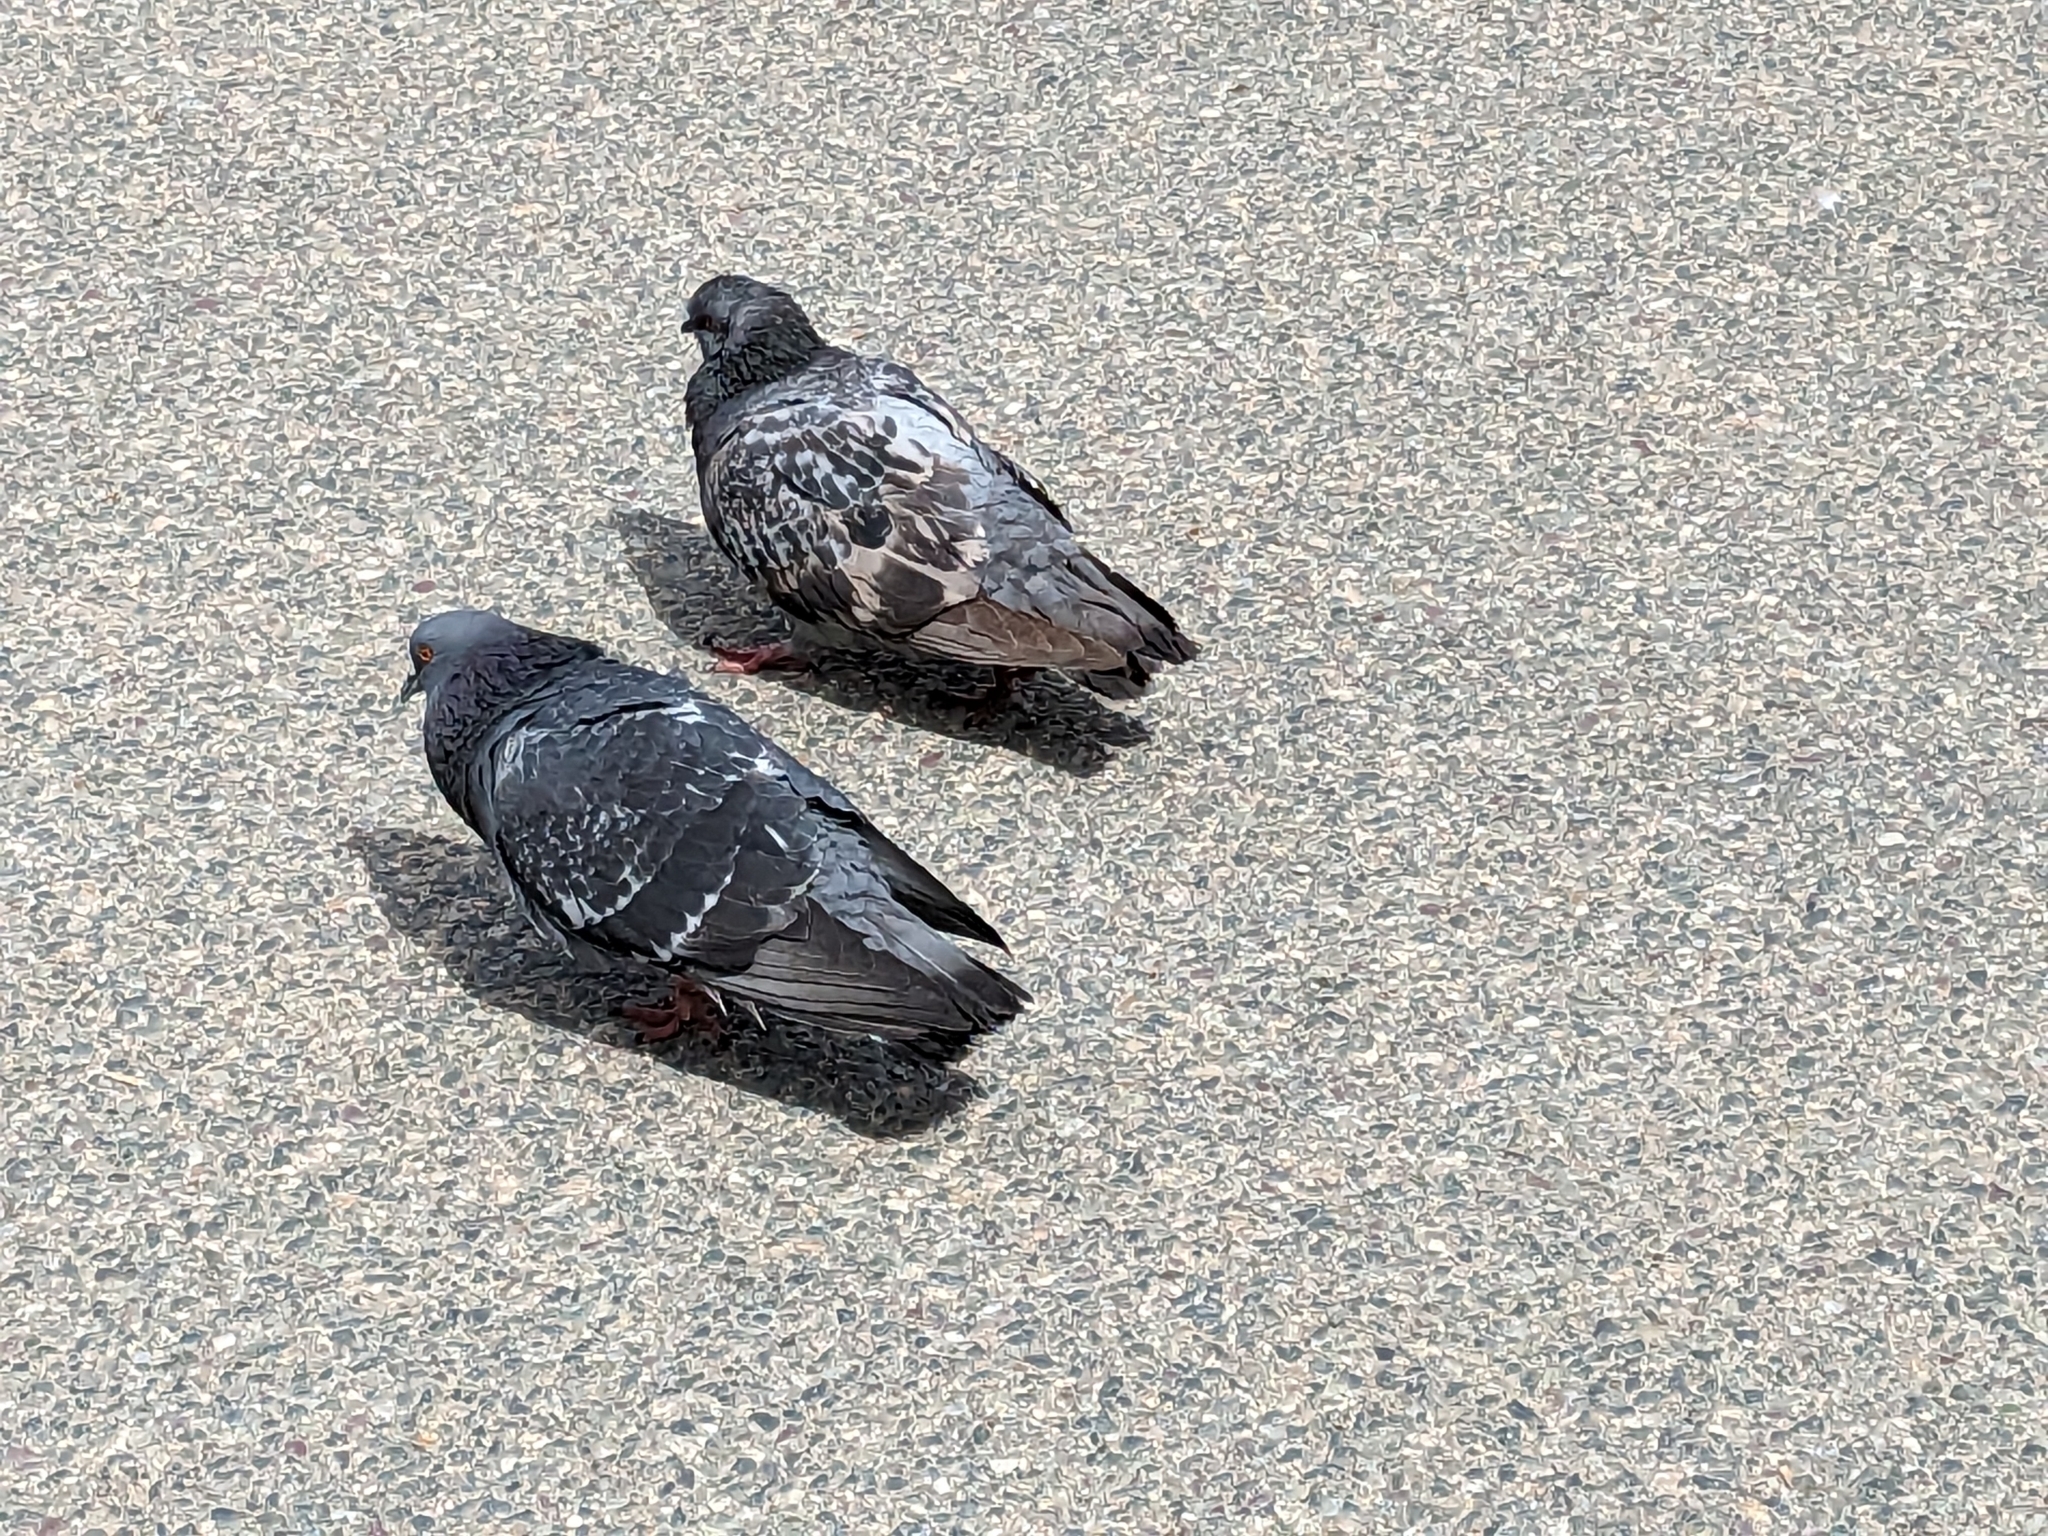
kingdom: Animalia
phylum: Chordata
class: Aves
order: Columbiformes
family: Columbidae
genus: Columba
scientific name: Columba livia
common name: Rock pigeon
